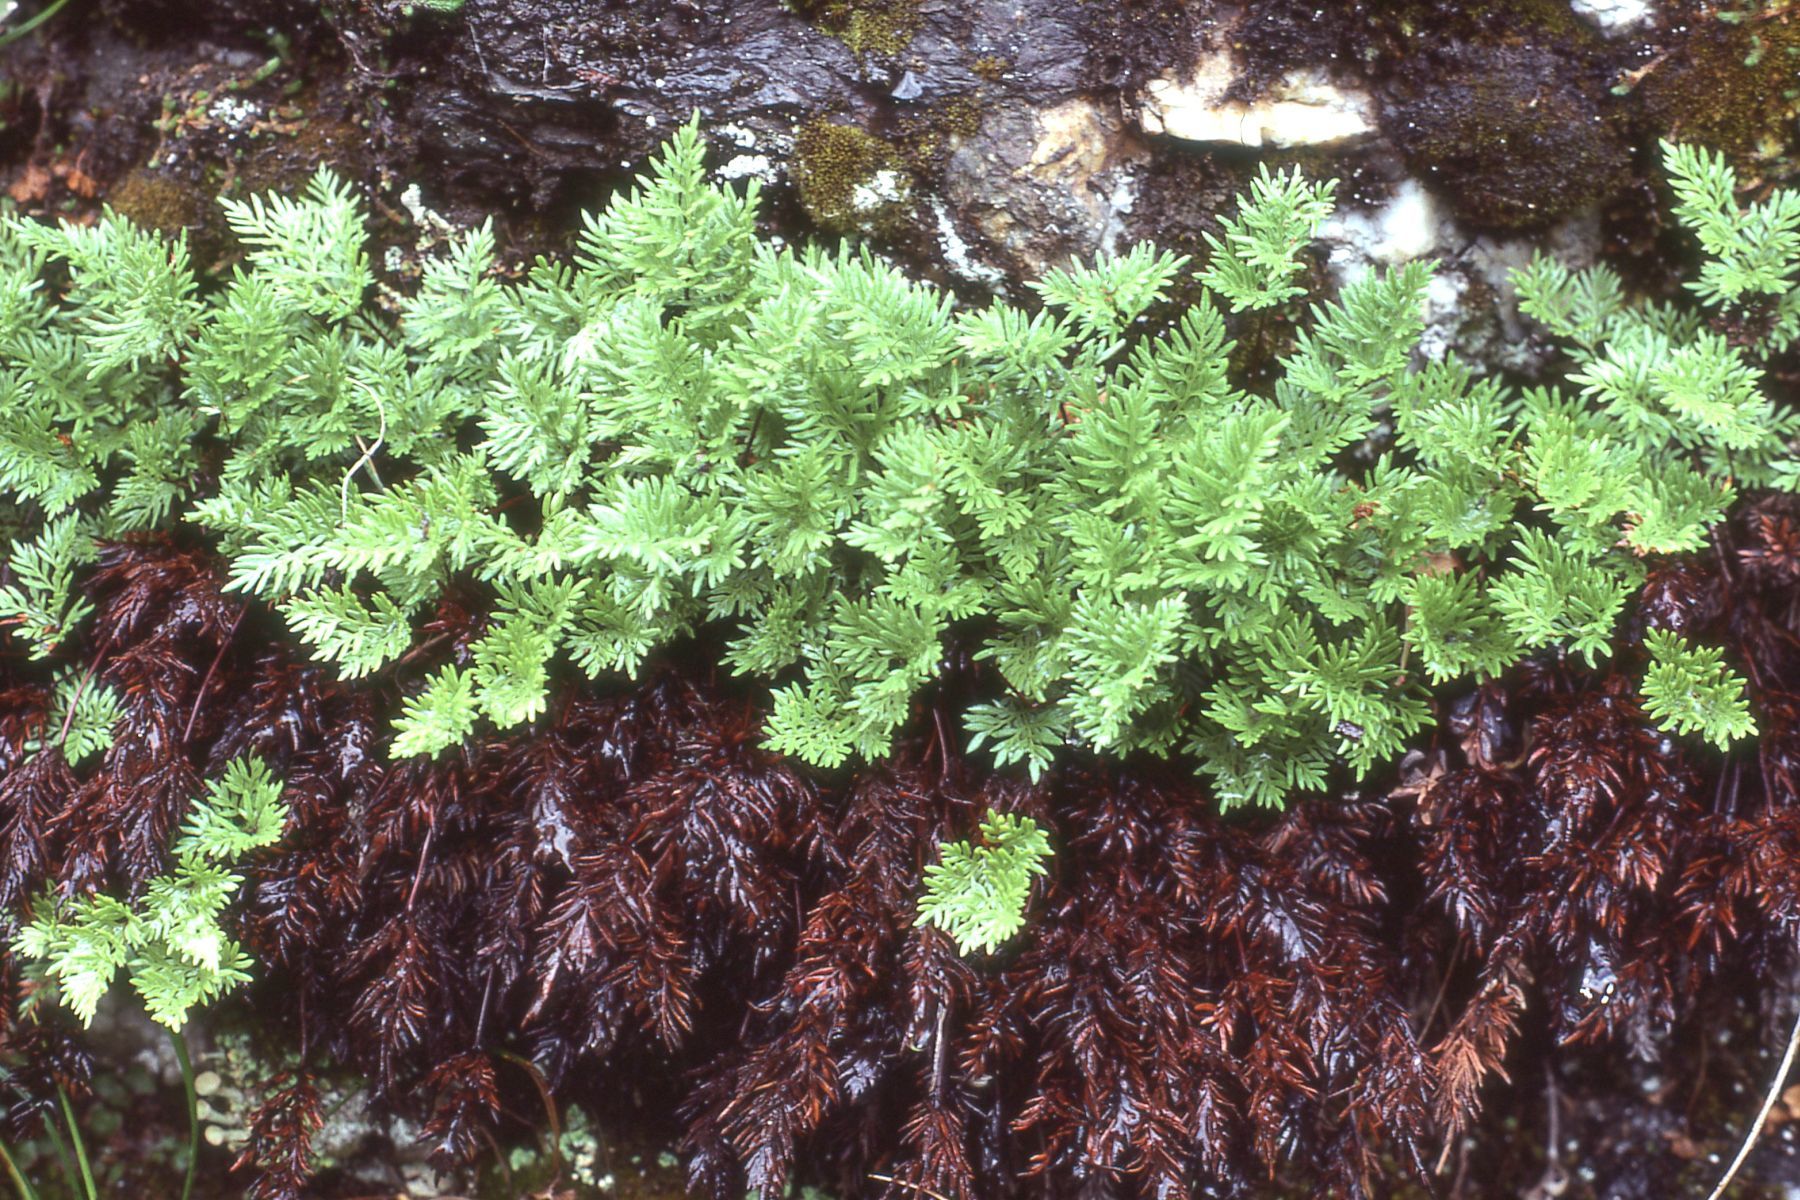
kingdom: Plantae
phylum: Tracheophyta
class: Polypodiopsida
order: Polypodiales
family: Pteridaceae
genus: Aspidotis
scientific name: Aspidotis densa
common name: Indian's dream
